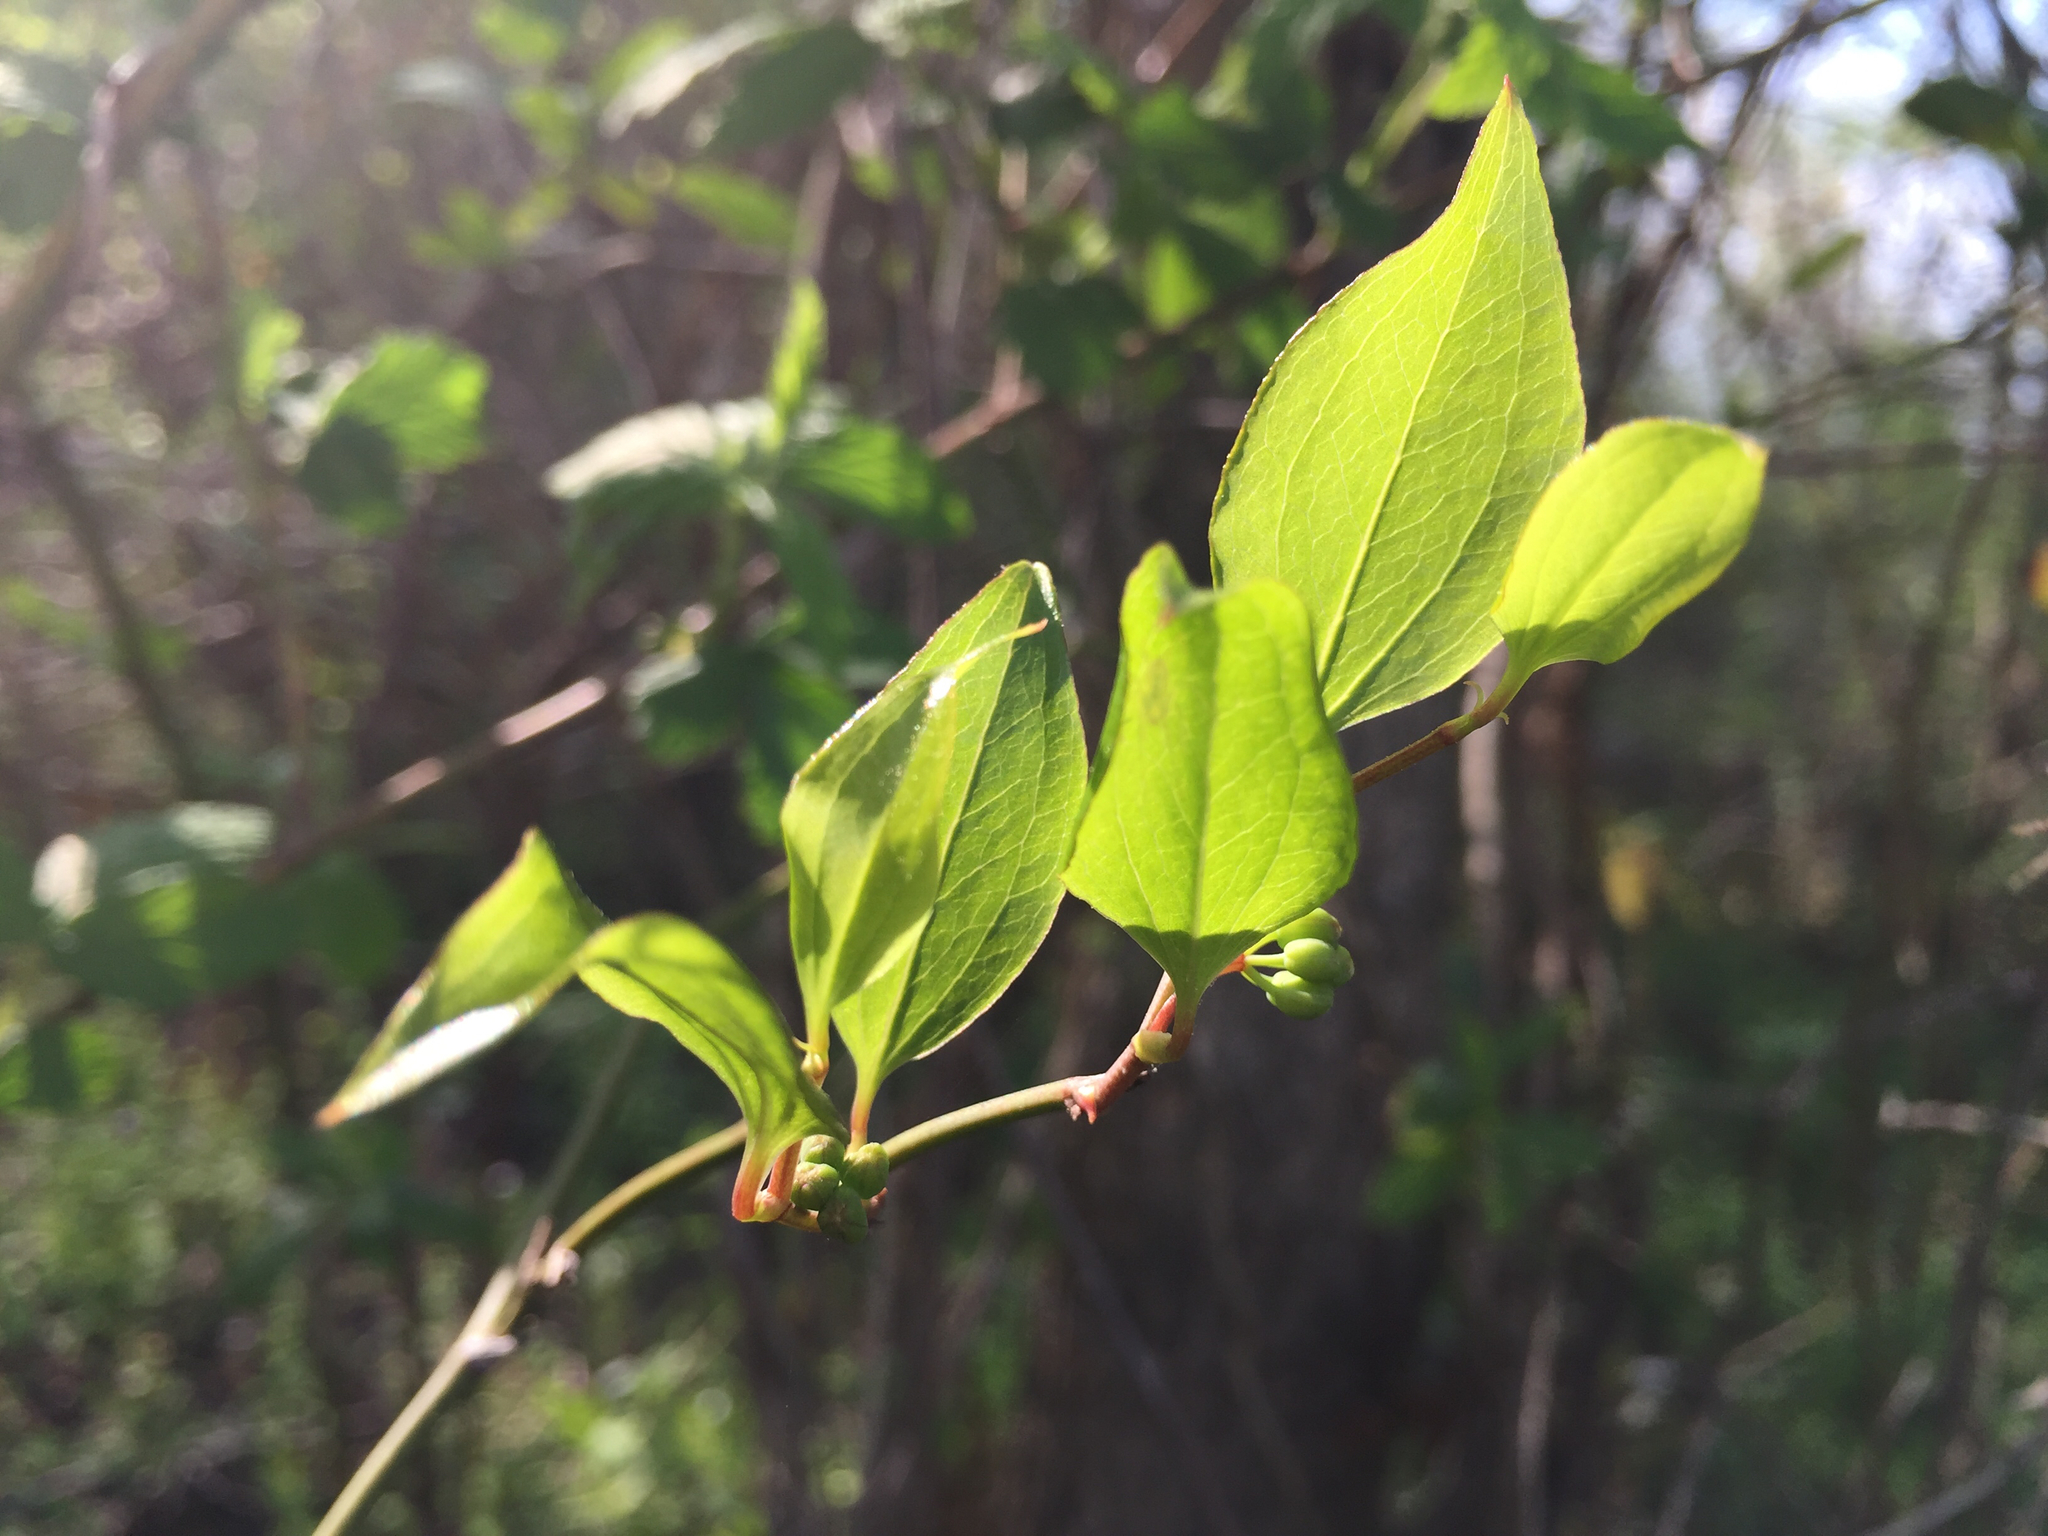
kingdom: Plantae
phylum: Tracheophyta
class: Liliopsida
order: Liliales
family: Smilacaceae
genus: Smilax
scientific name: Smilax rotundifolia
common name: Bullbriar
